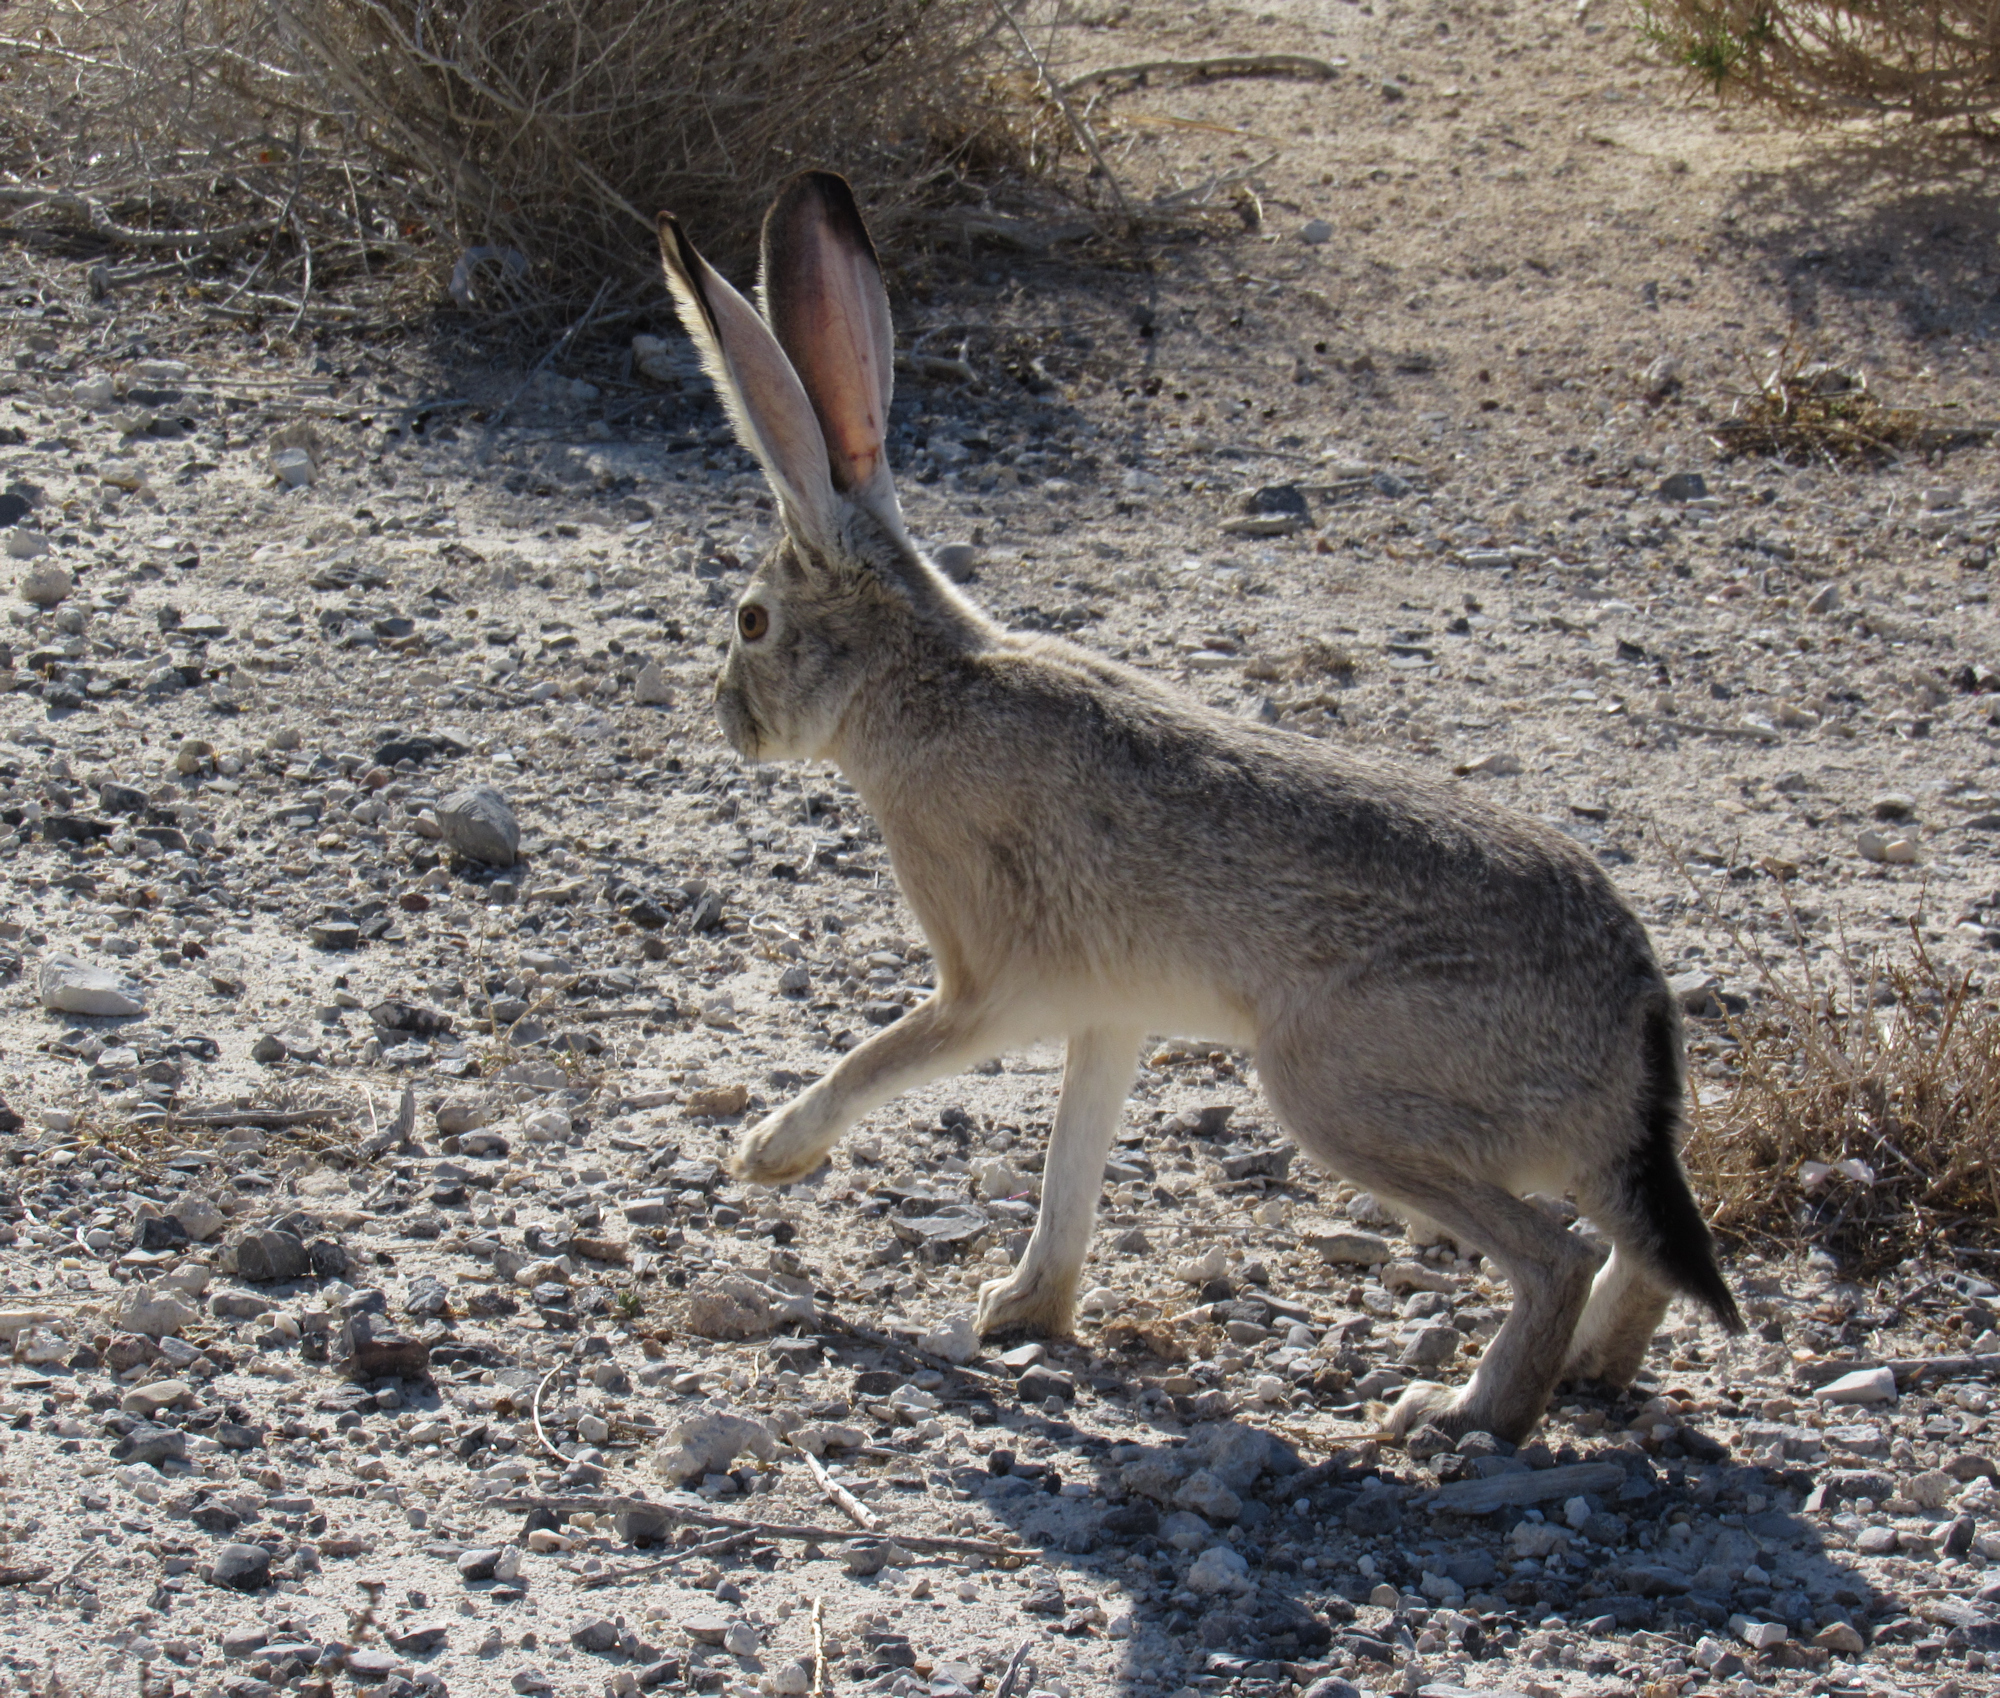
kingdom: Animalia
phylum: Chordata
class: Mammalia
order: Lagomorpha
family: Leporidae
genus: Lepus
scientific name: Lepus californicus
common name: Black-tailed jackrabbit
